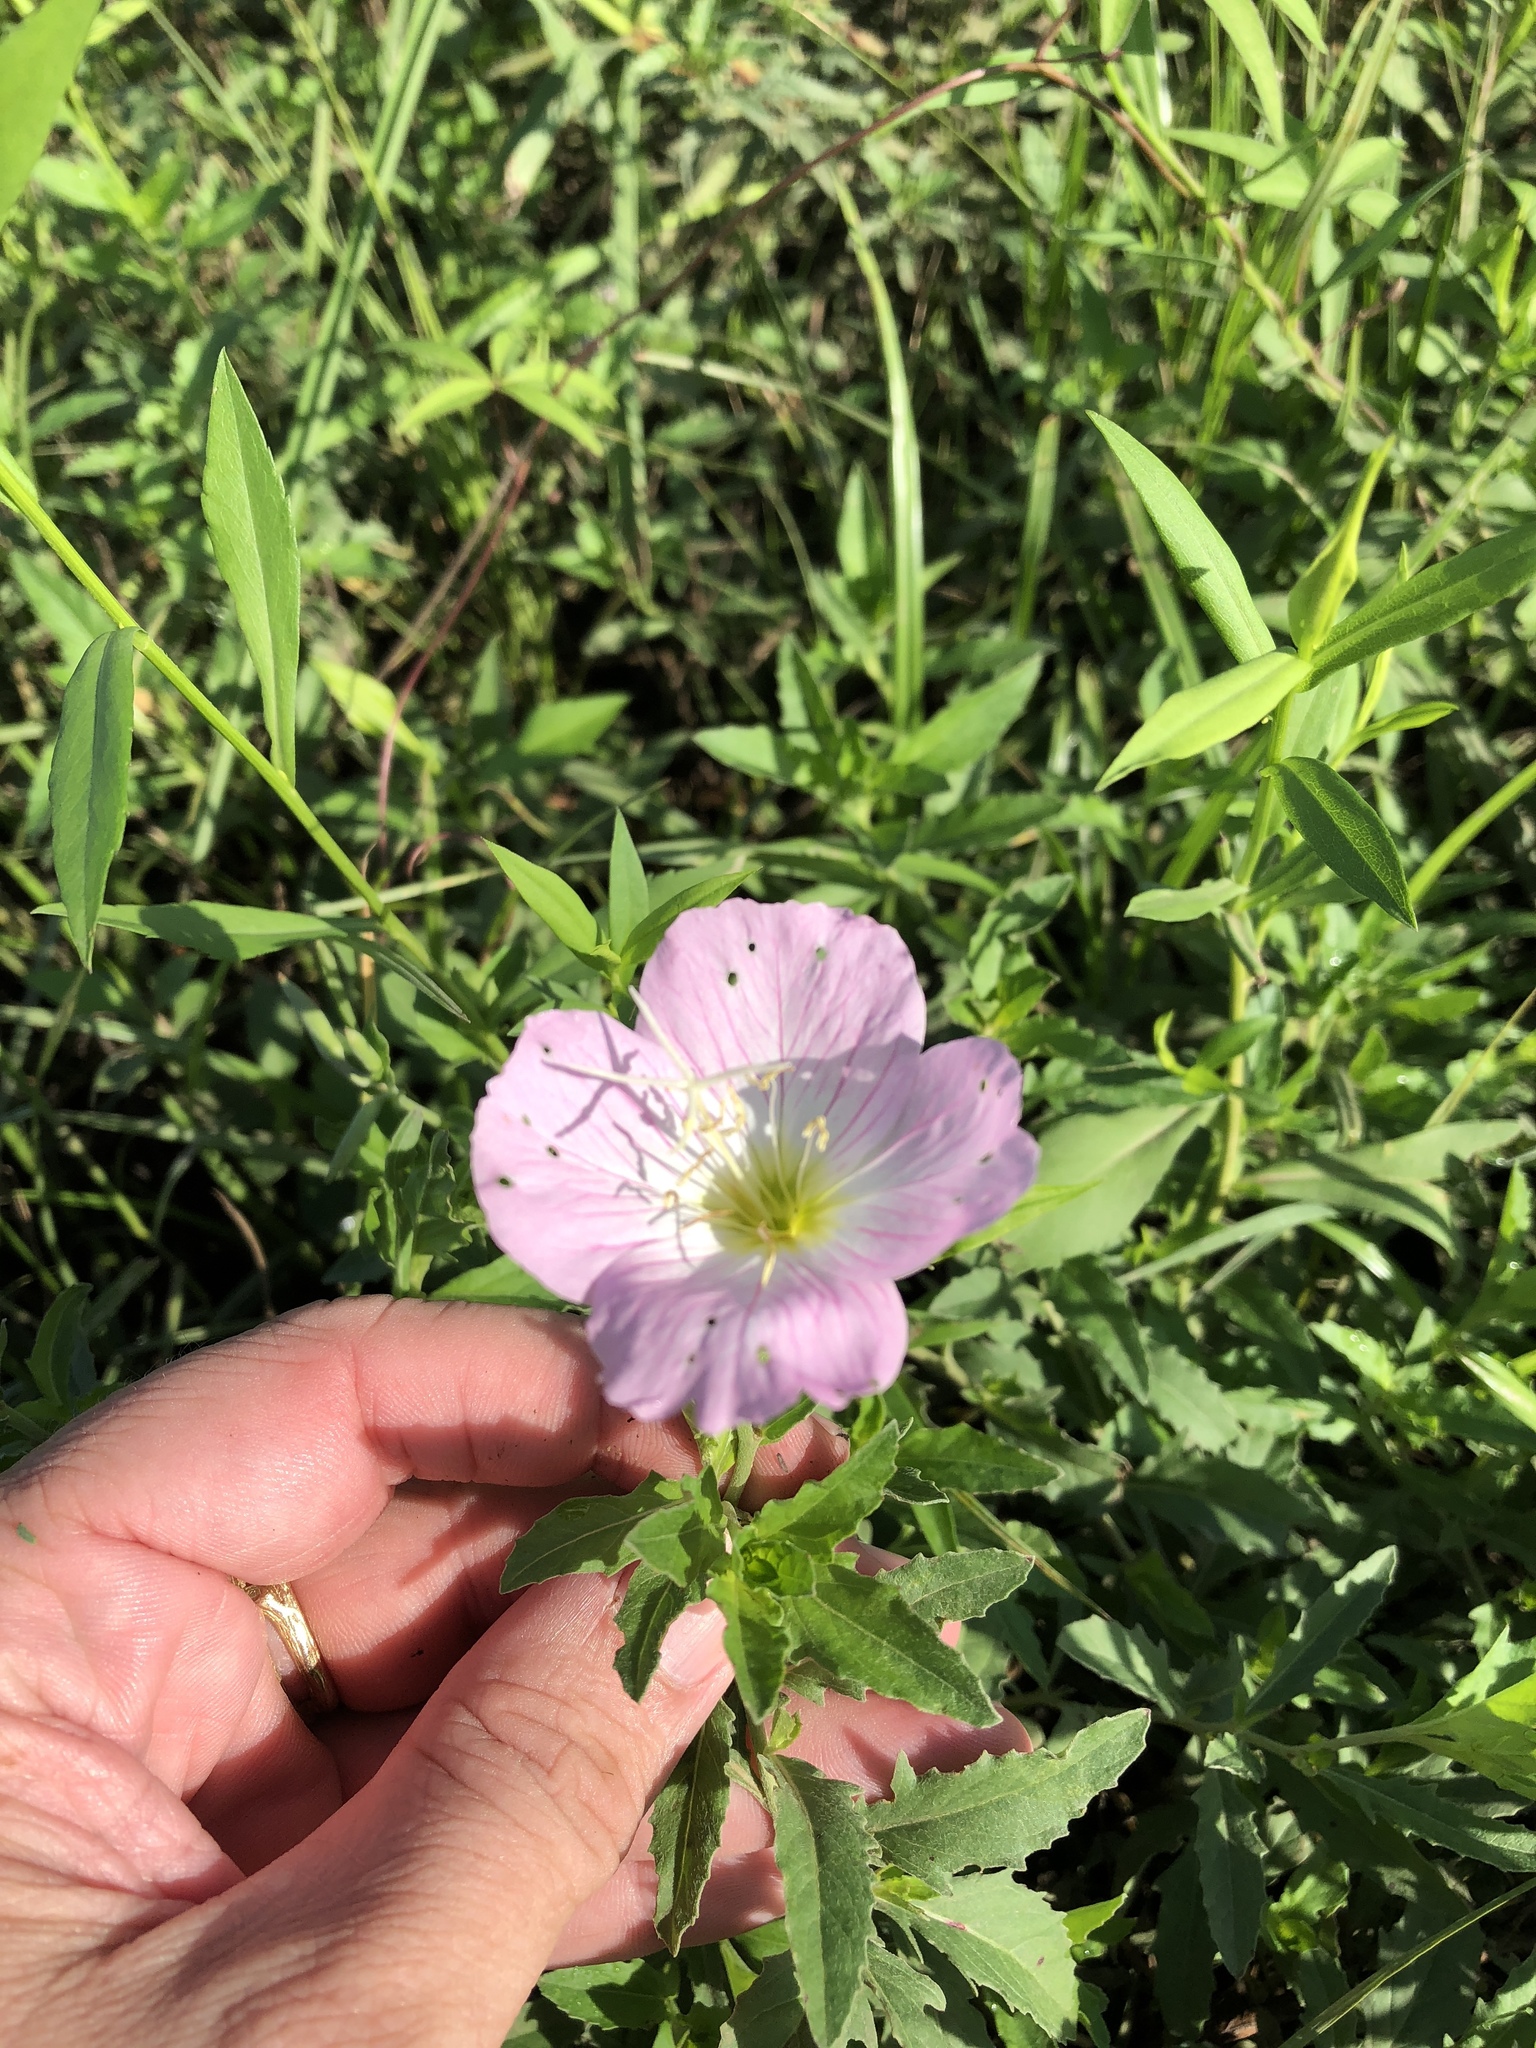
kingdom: Plantae
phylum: Tracheophyta
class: Magnoliopsida
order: Myrtales
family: Onagraceae
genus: Oenothera
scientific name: Oenothera speciosa
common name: White evening-primrose
